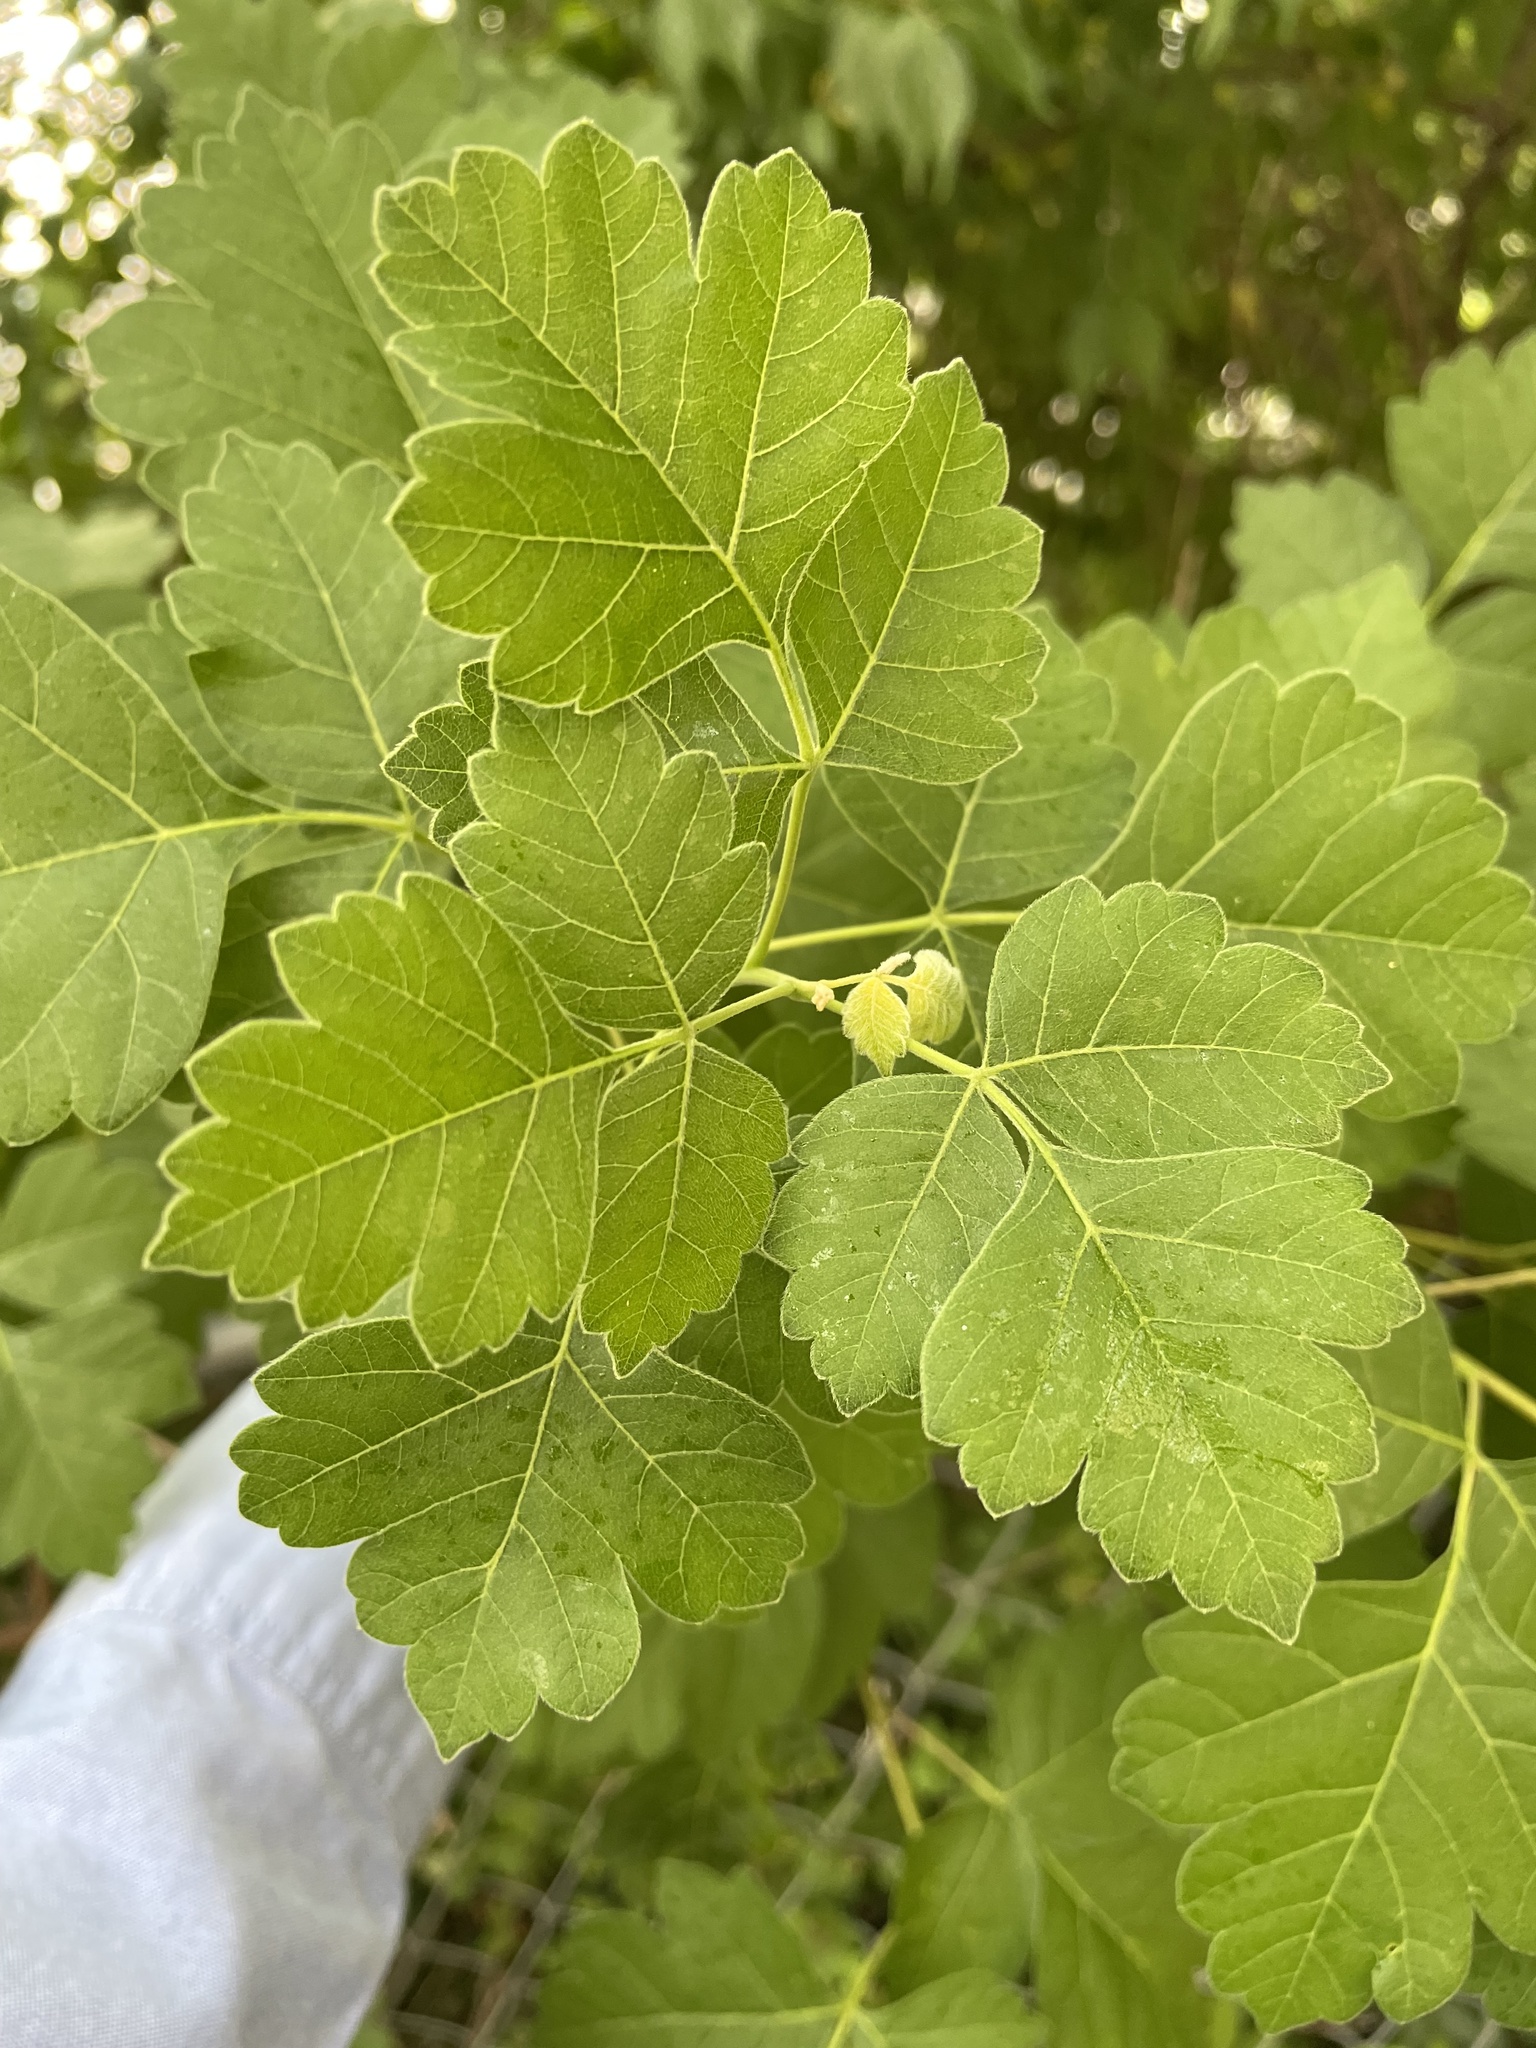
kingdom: Plantae
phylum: Tracheophyta
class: Magnoliopsida
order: Sapindales
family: Anacardiaceae
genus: Rhus
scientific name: Rhus aromatica
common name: Aromatic sumac
